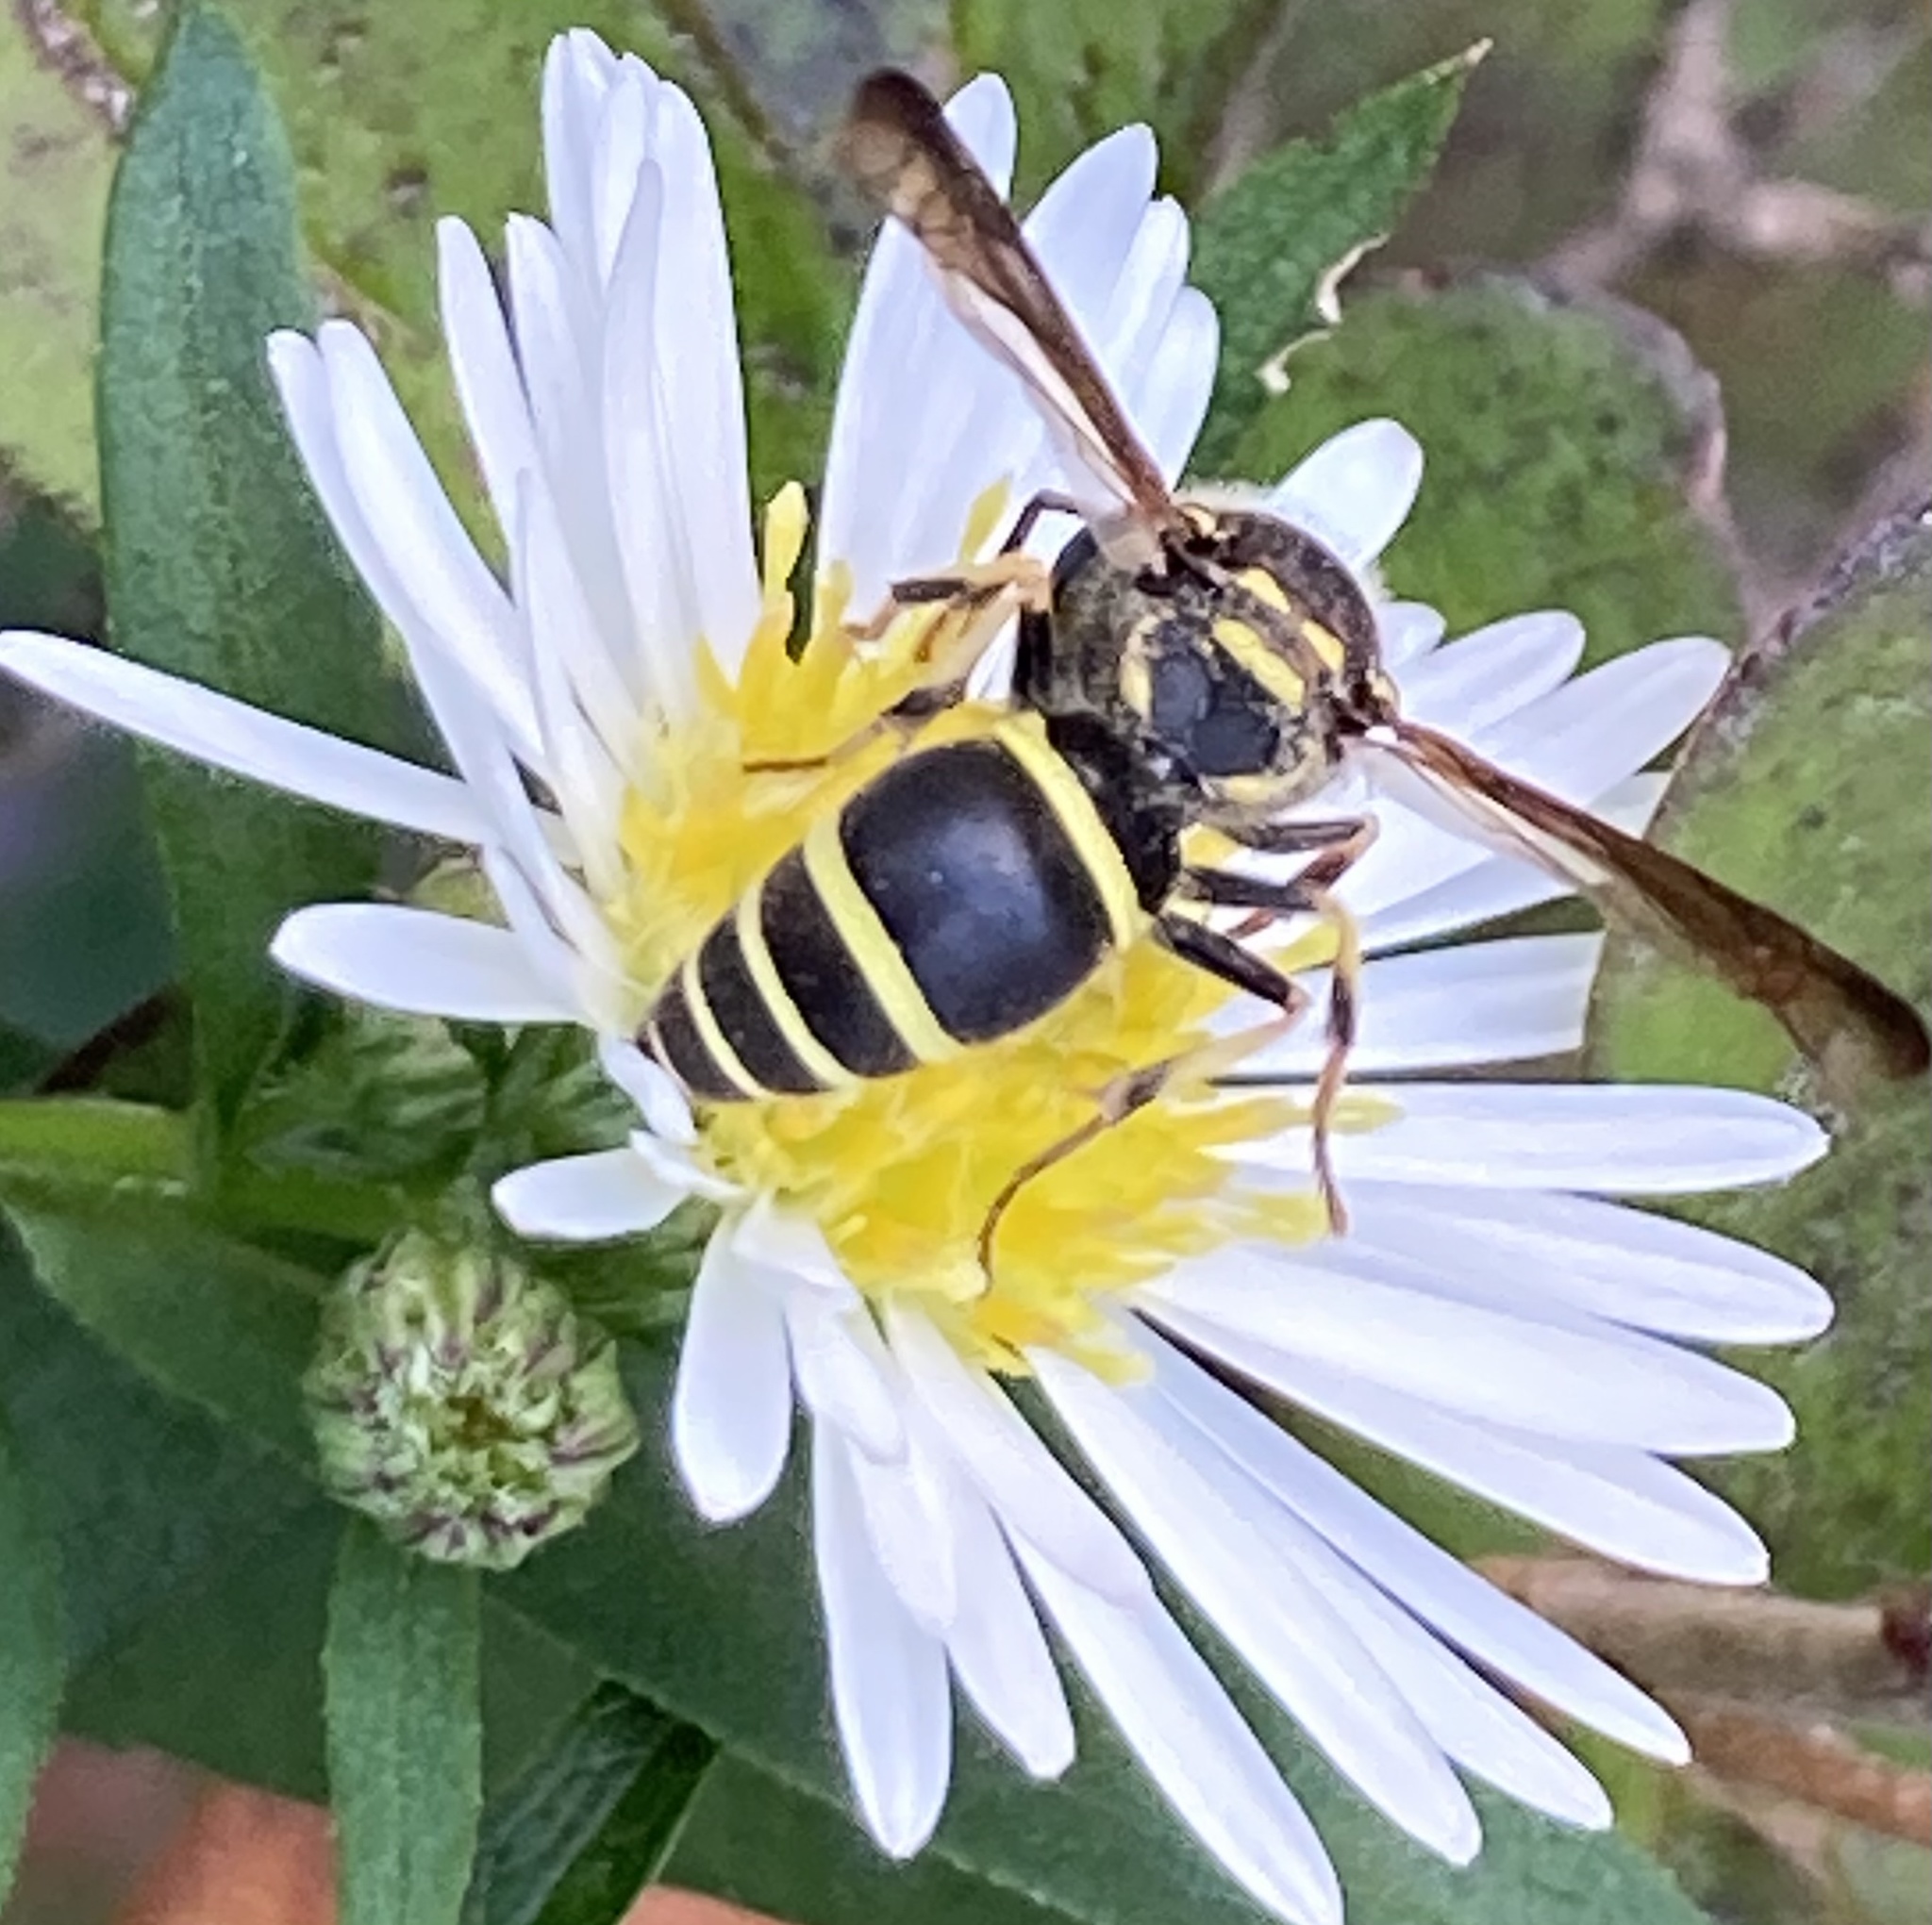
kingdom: Animalia
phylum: Arthropoda
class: Insecta
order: Hymenoptera
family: Vespidae
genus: Ancistrocerus
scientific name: Ancistrocerus catskill
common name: Vespid wasp
